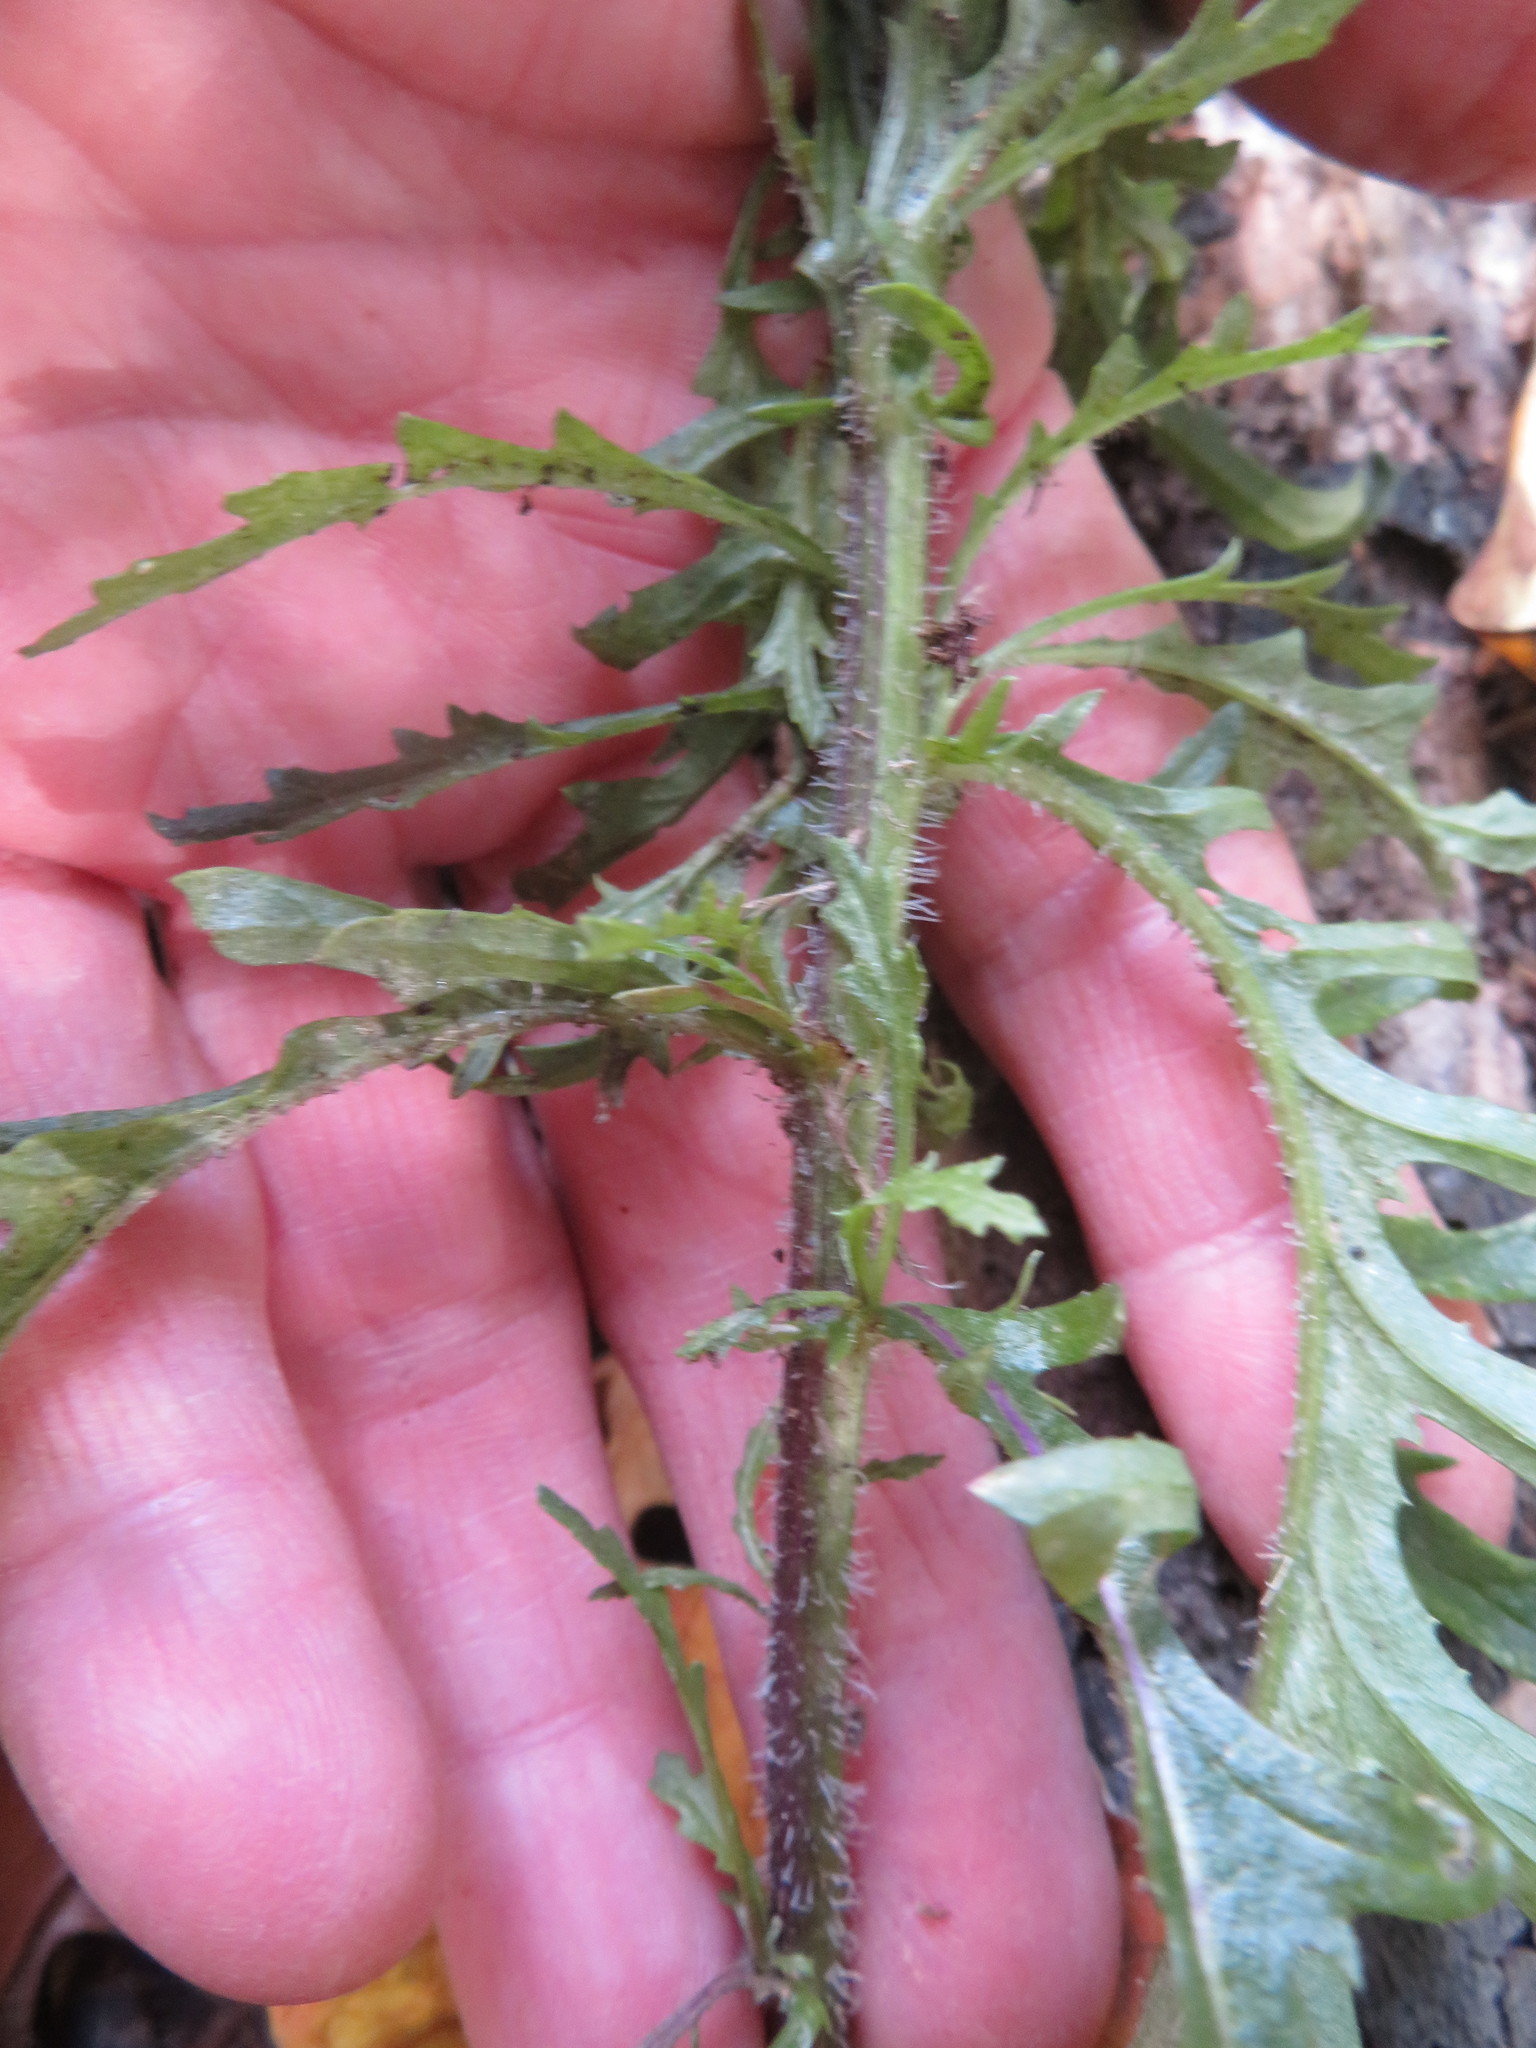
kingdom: Plantae
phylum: Tracheophyta
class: Magnoliopsida
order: Asterales
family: Asteraceae
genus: Senecio
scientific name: Senecio esleri
